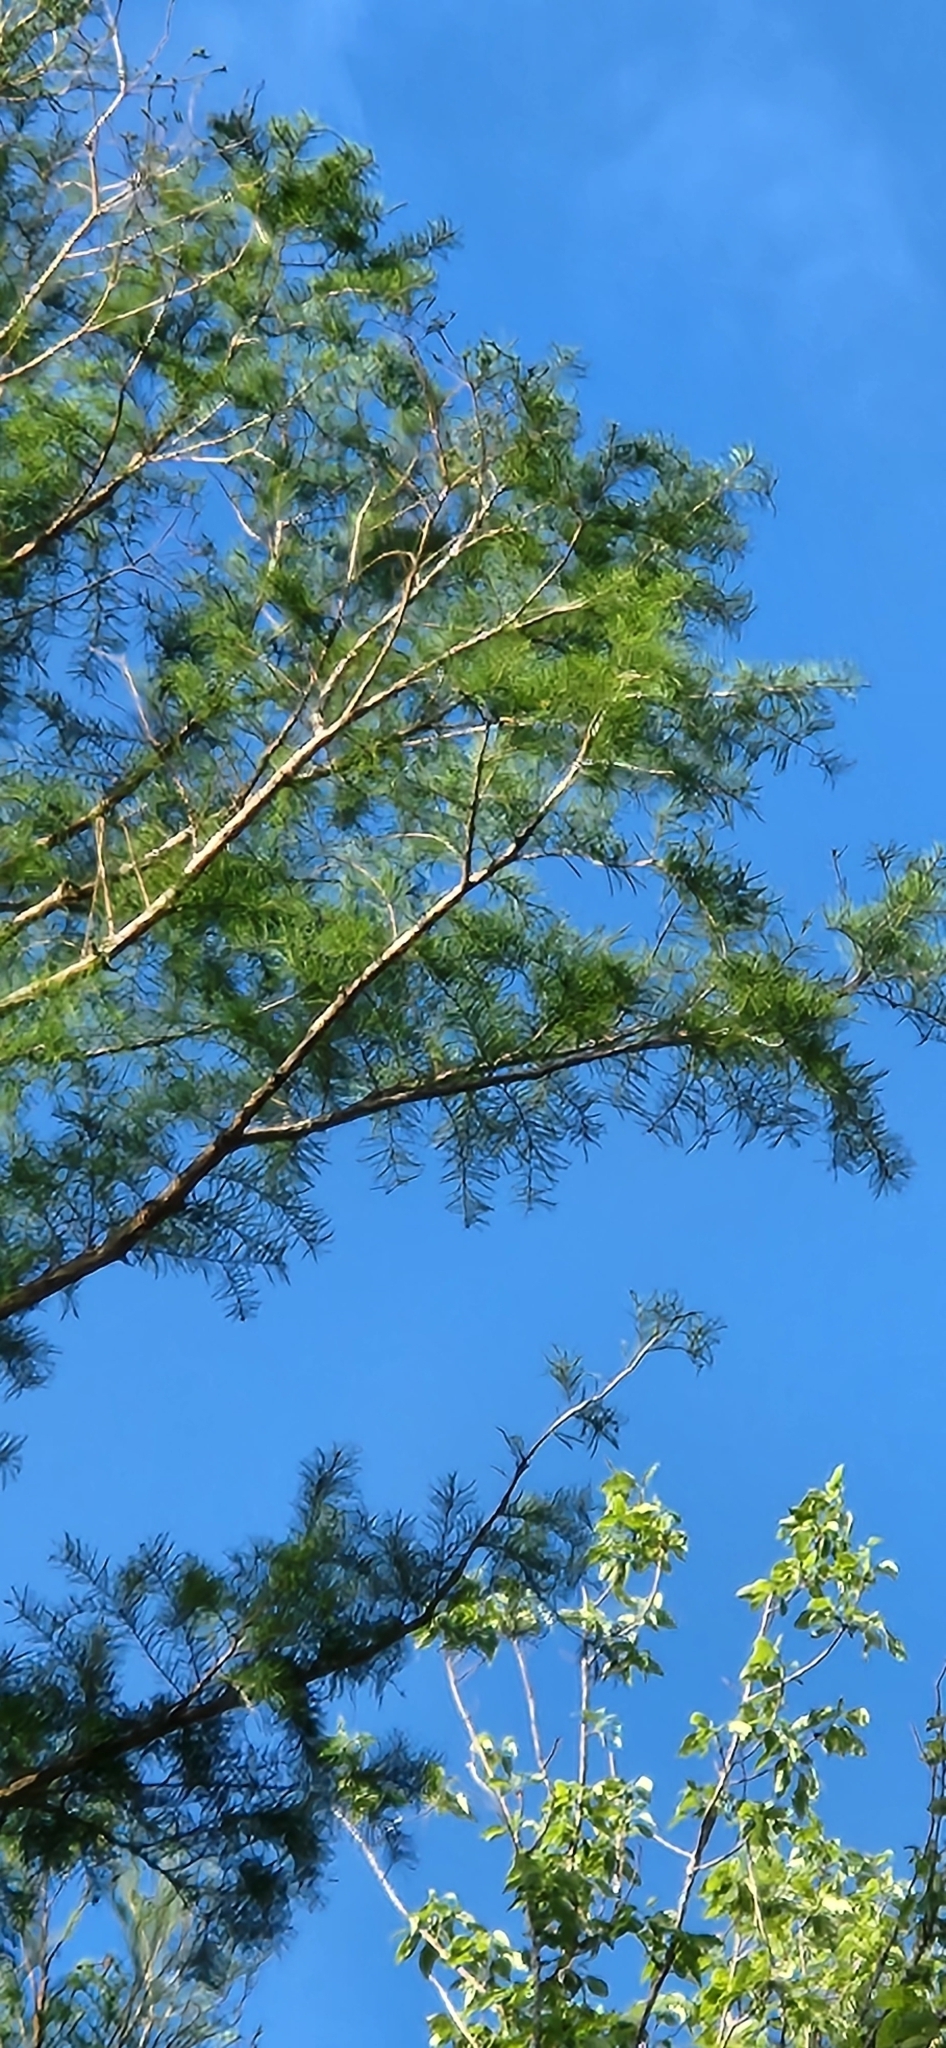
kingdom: Plantae
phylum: Tracheophyta
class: Pinopsida
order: Pinales
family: Cupressaceae
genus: Taxodium
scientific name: Taxodium distichum
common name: Bald cypress
